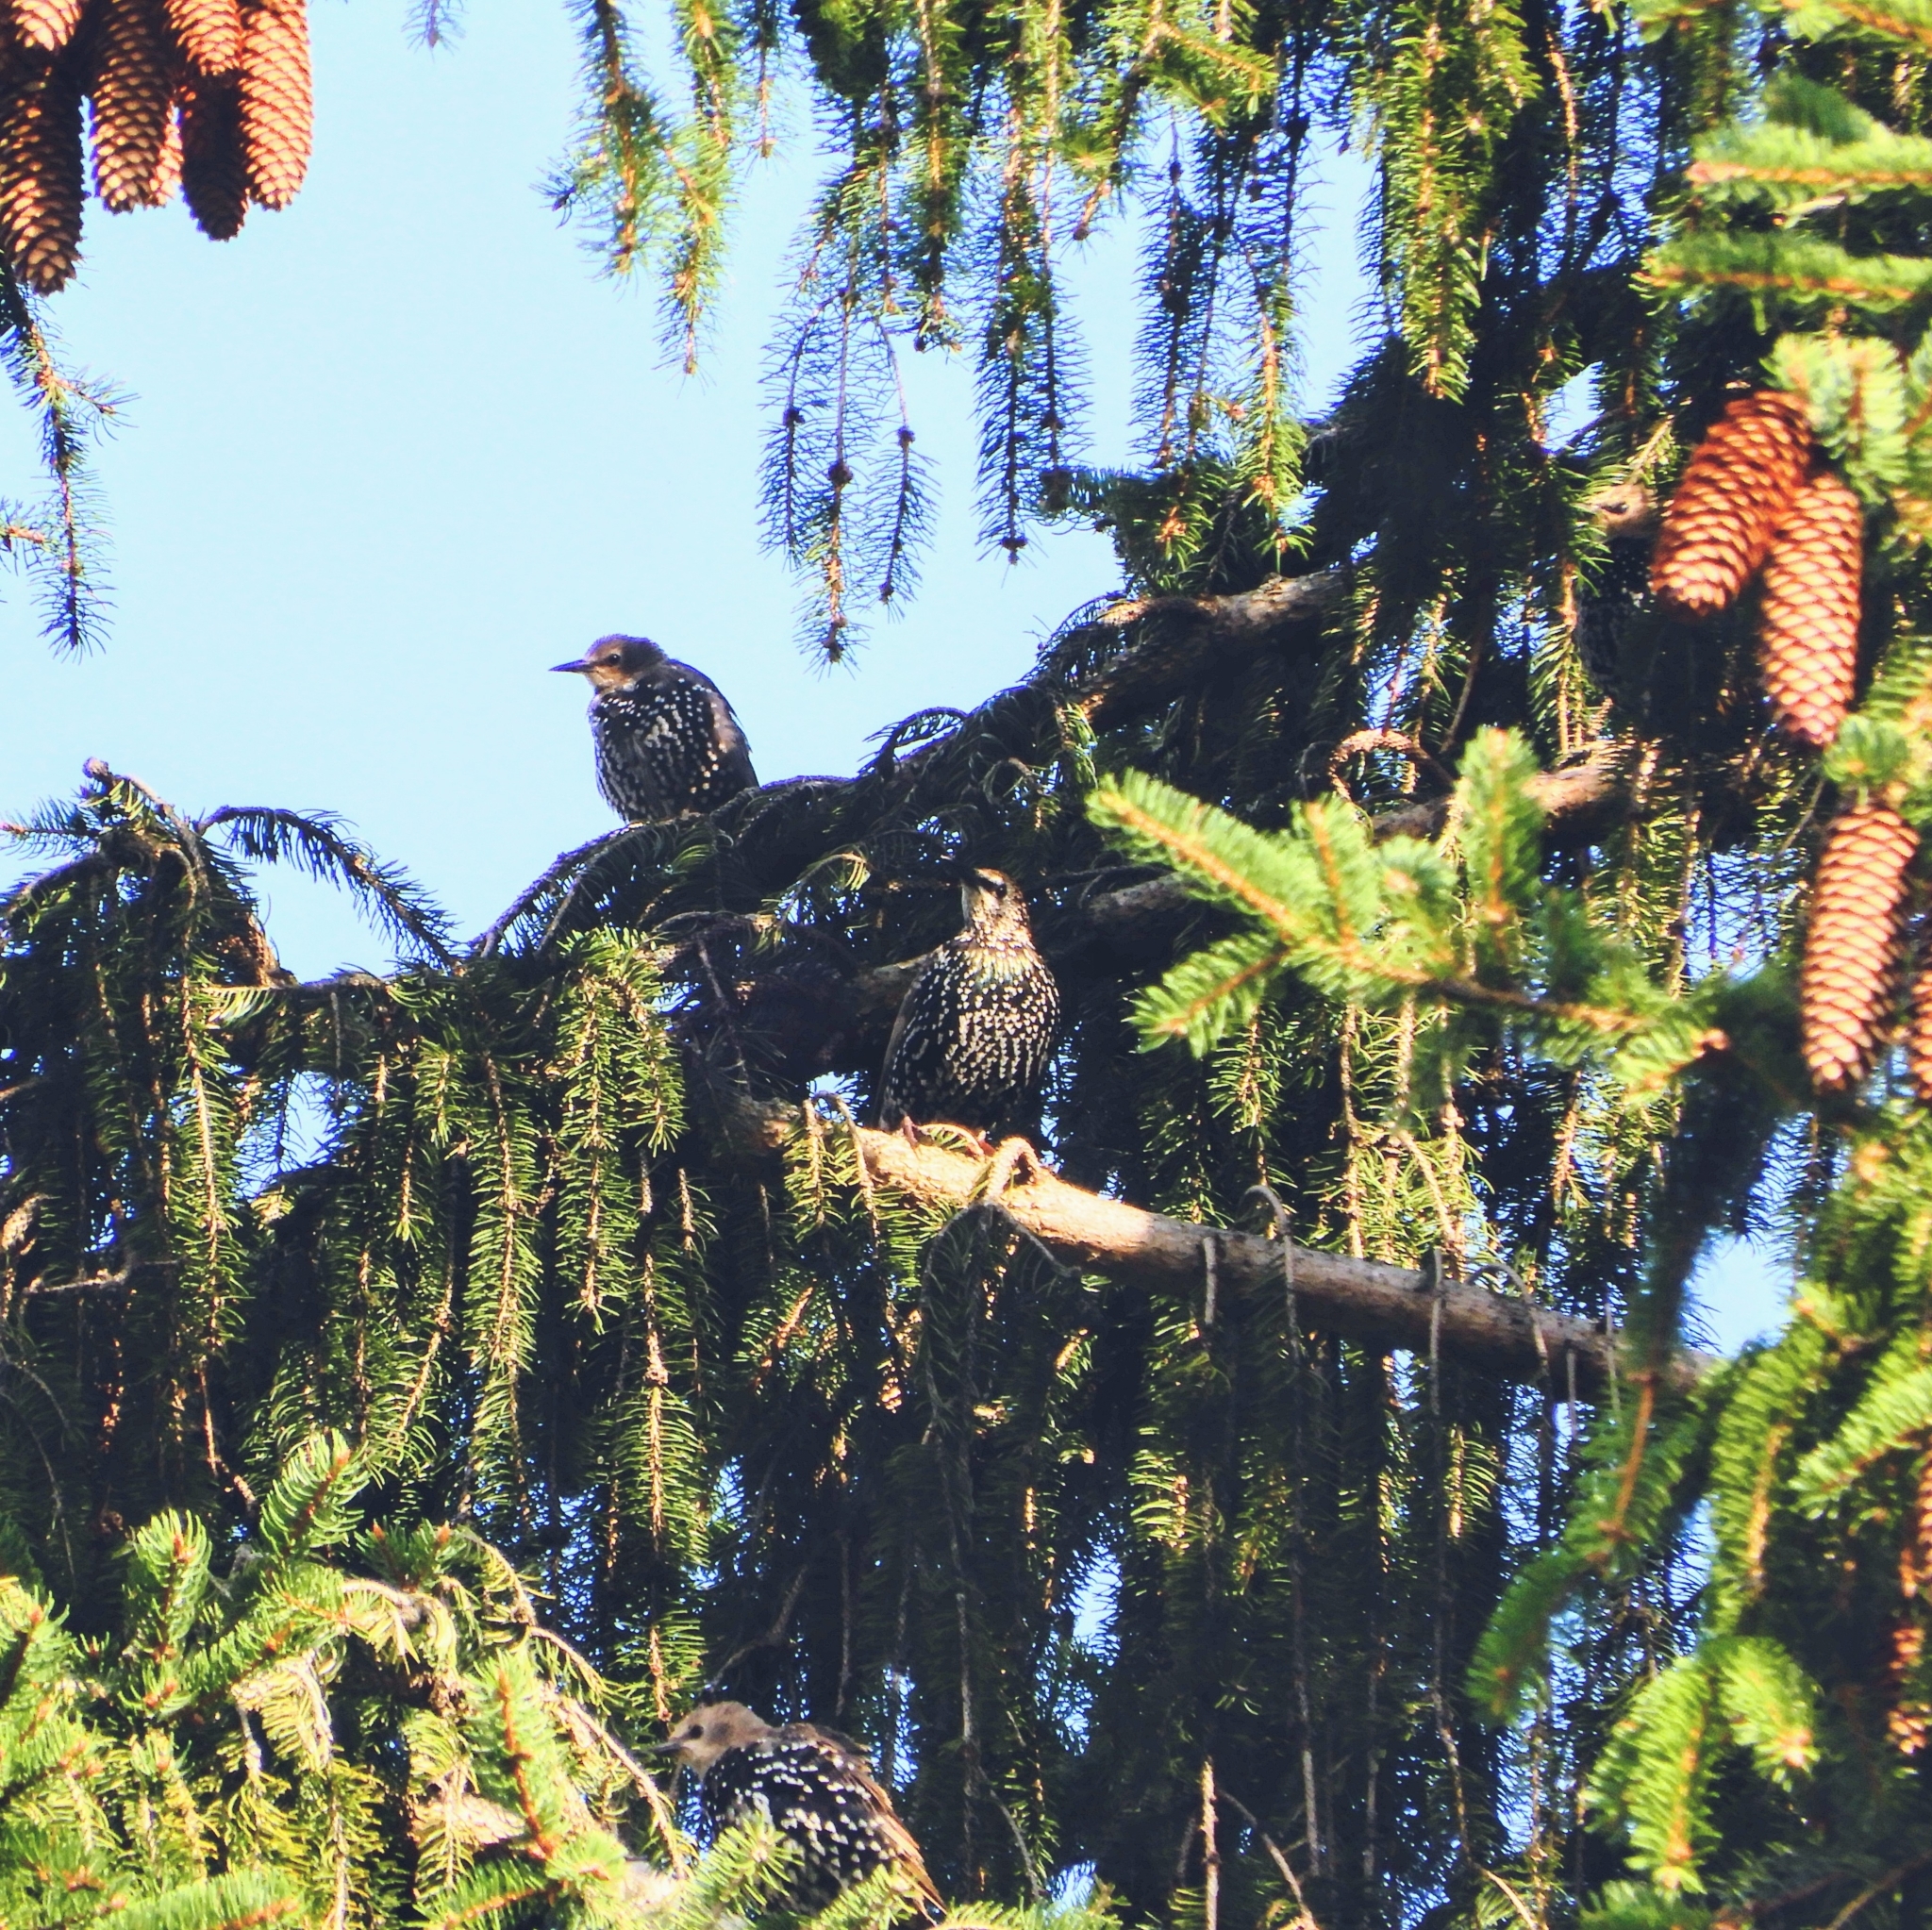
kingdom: Animalia
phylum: Chordata
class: Aves
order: Passeriformes
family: Sturnidae
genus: Sturnus
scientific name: Sturnus vulgaris
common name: Common starling
